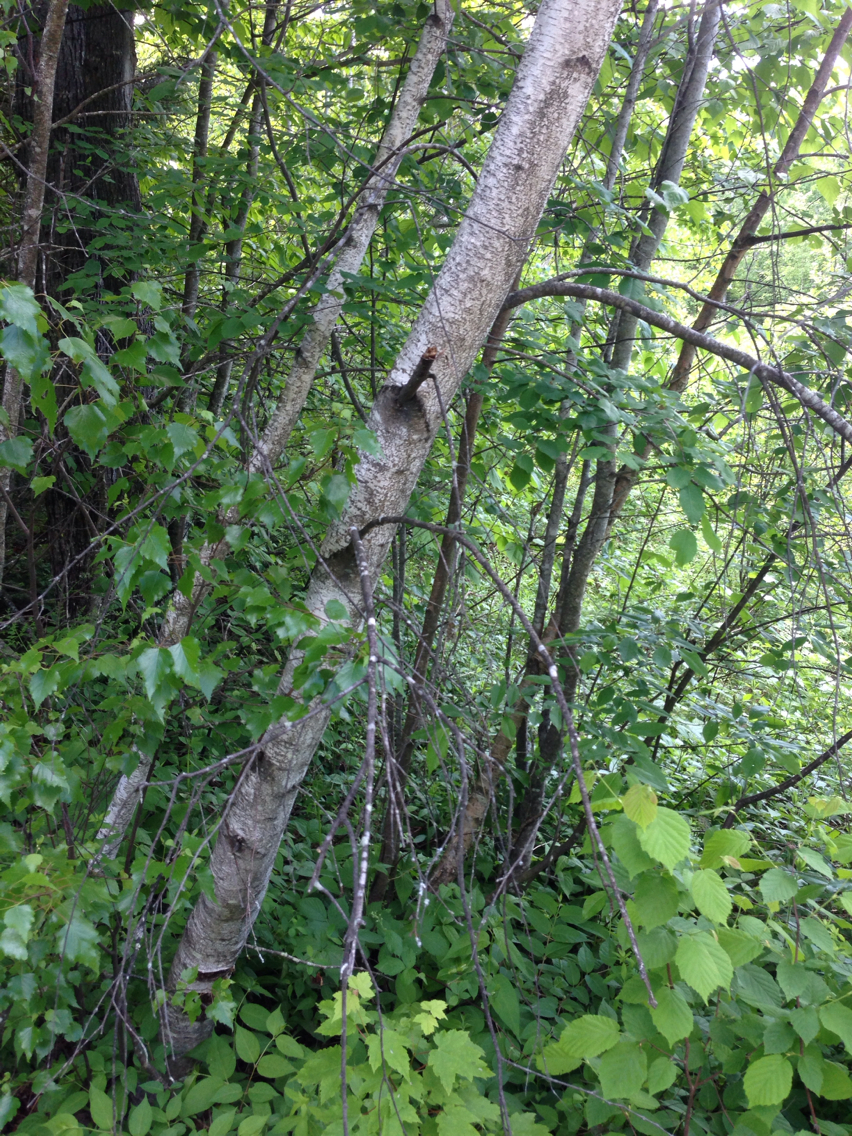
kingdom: Plantae
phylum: Tracheophyta
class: Magnoliopsida
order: Fagales
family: Betulaceae
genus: Betula
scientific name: Betula populifolia
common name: Fire birch
